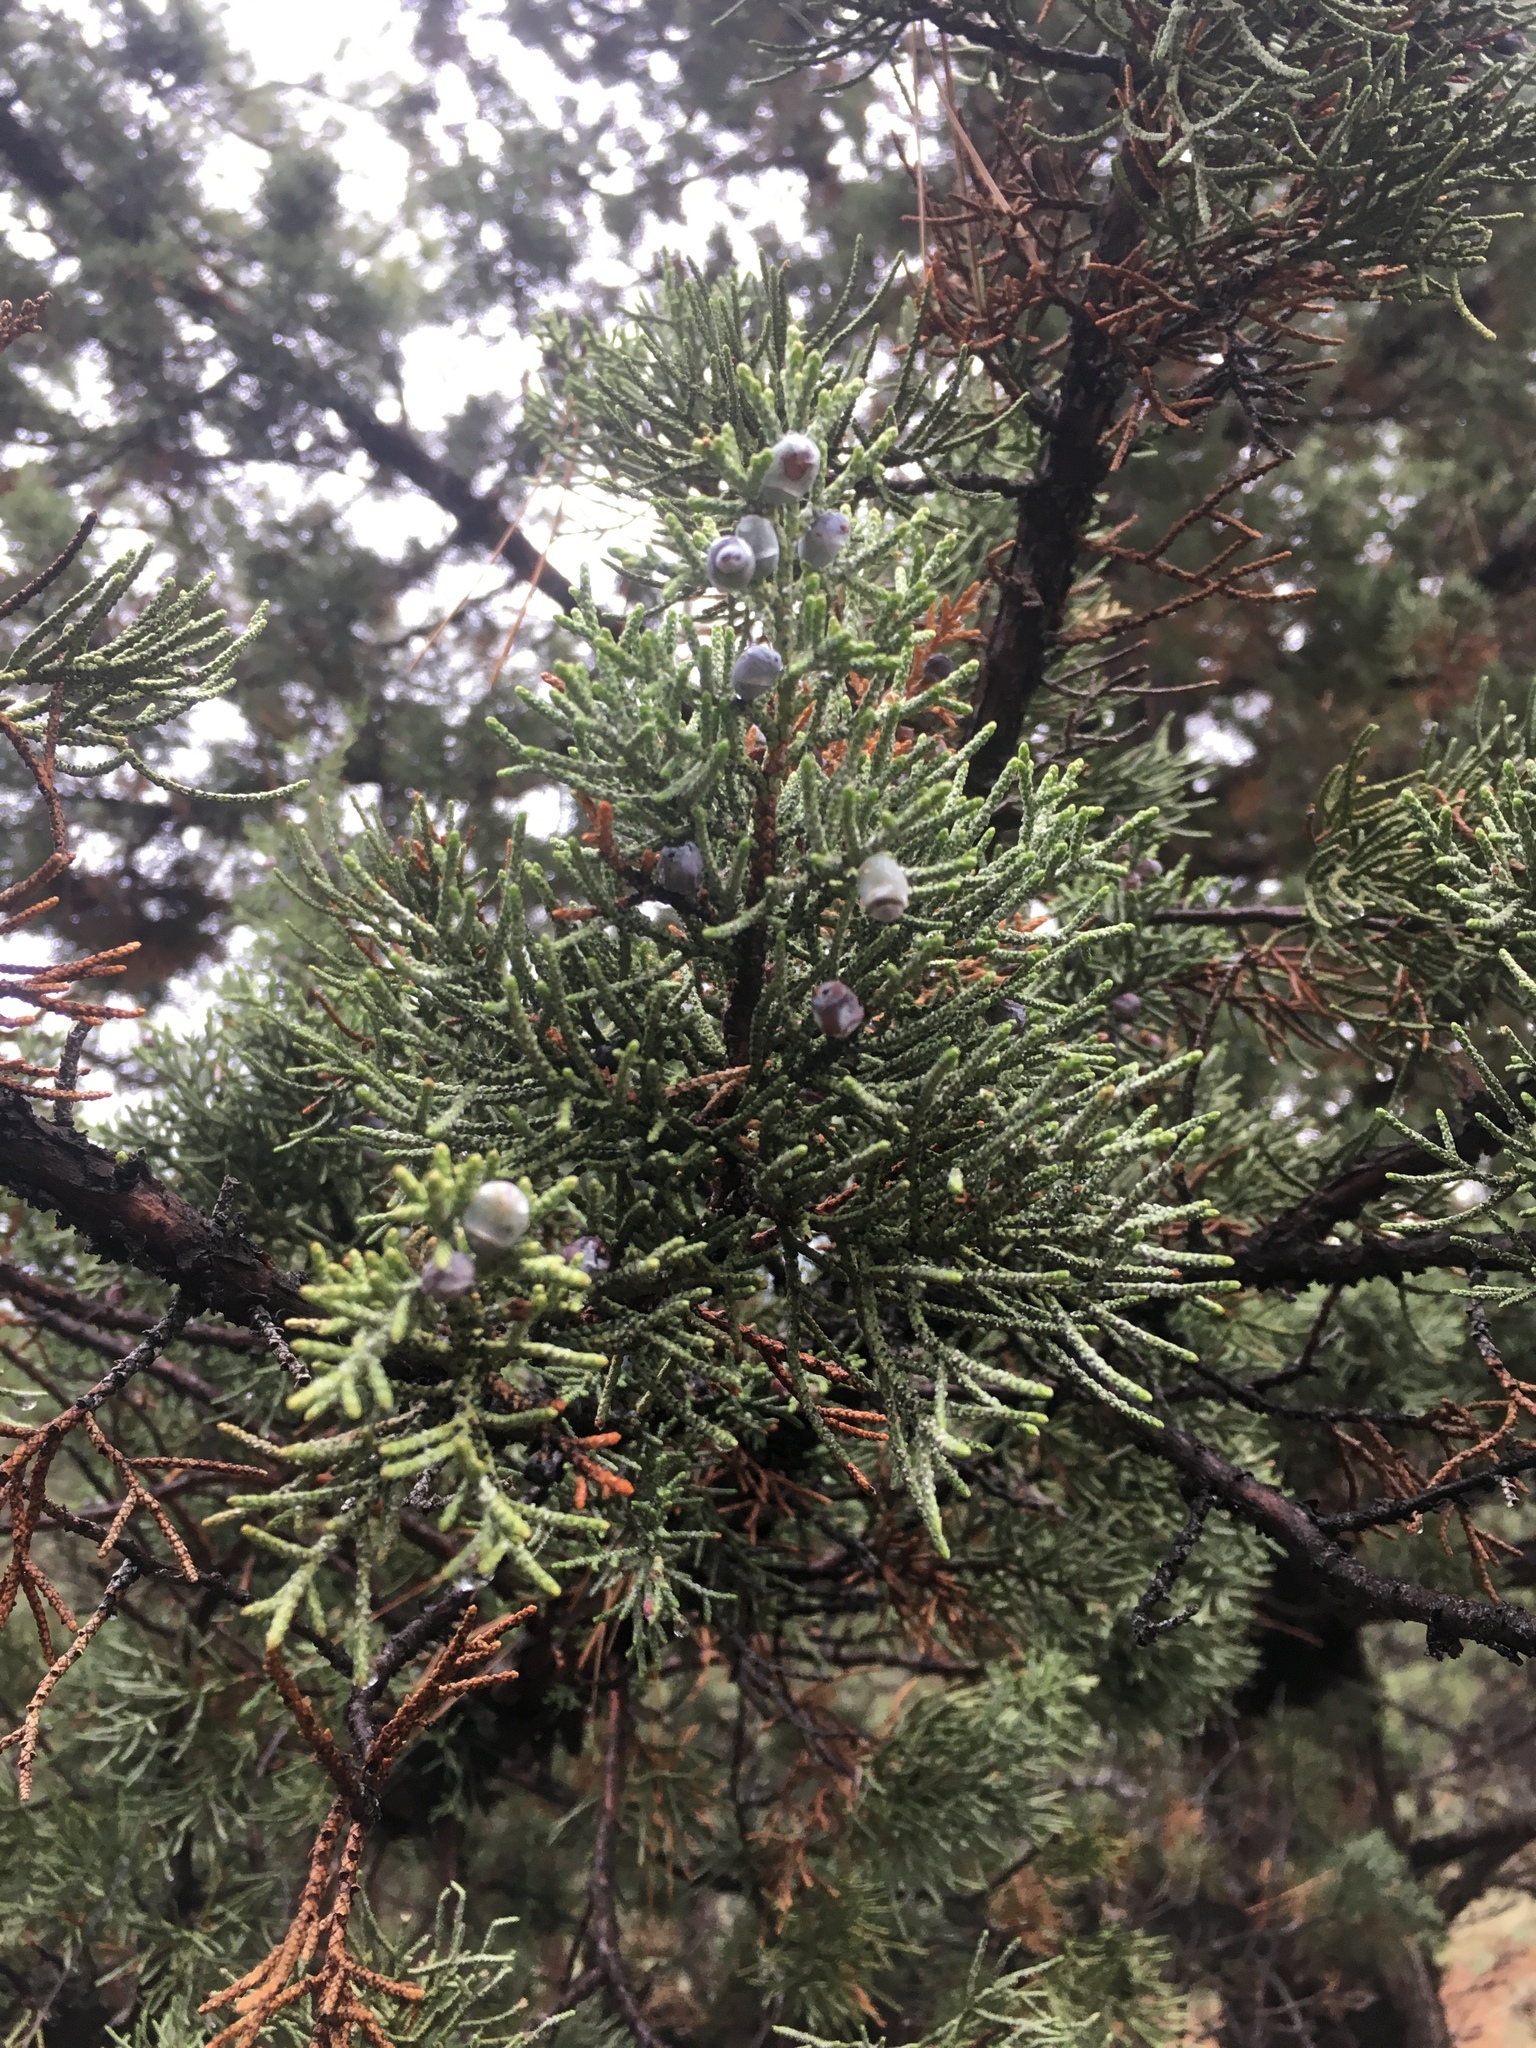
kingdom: Plantae
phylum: Tracheophyta
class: Pinopsida
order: Pinales
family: Cupressaceae
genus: Juniperus
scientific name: Juniperus occidentalis
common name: Western juniper
